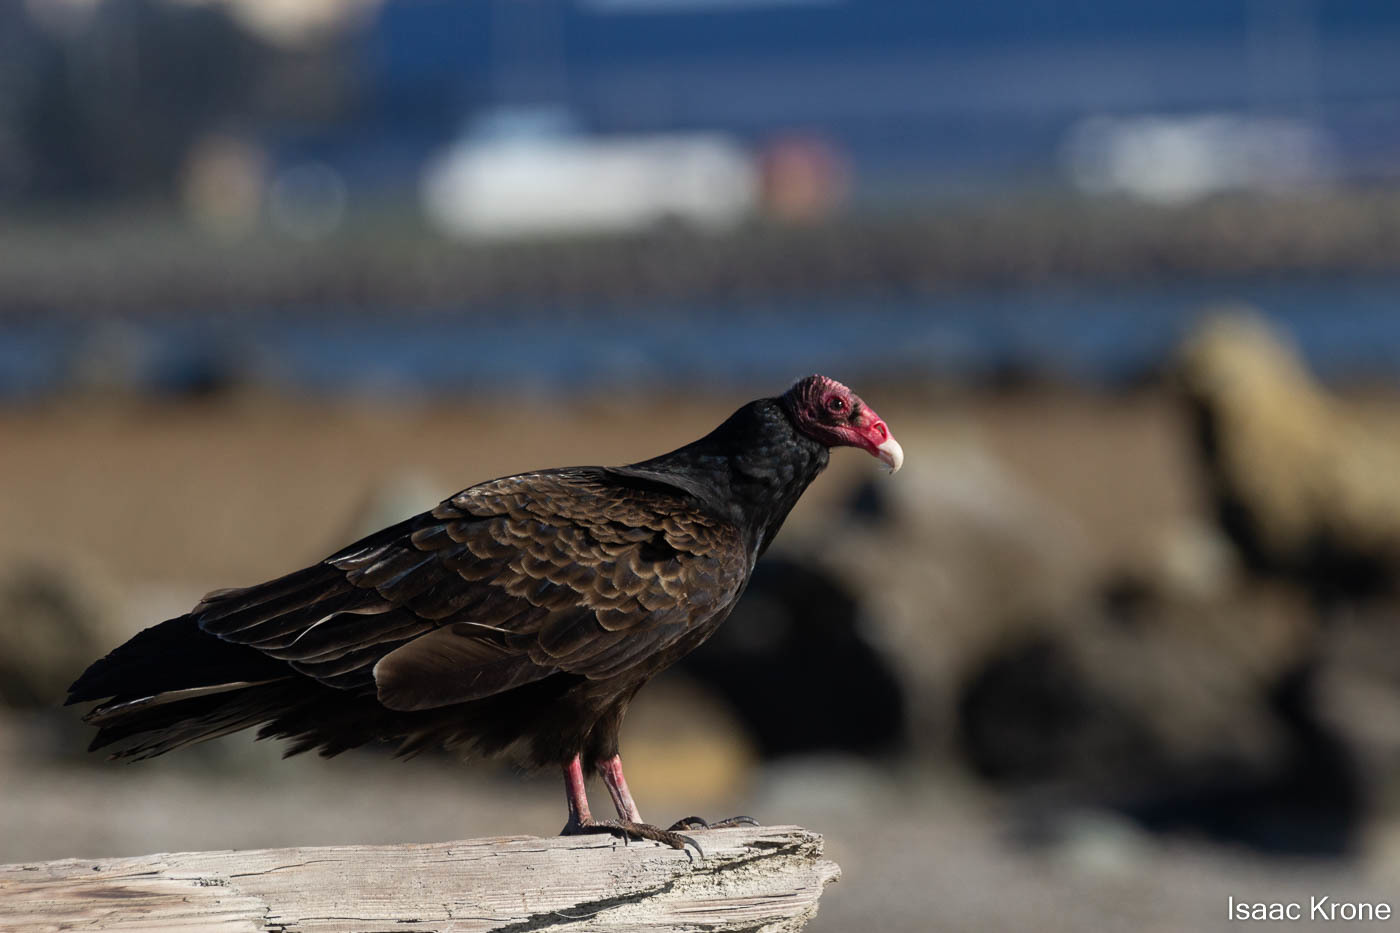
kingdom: Animalia
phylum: Chordata
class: Aves
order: Accipitriformes
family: Cathartidae
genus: Cathartes
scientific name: Cathartes aura
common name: Turkey vulture
